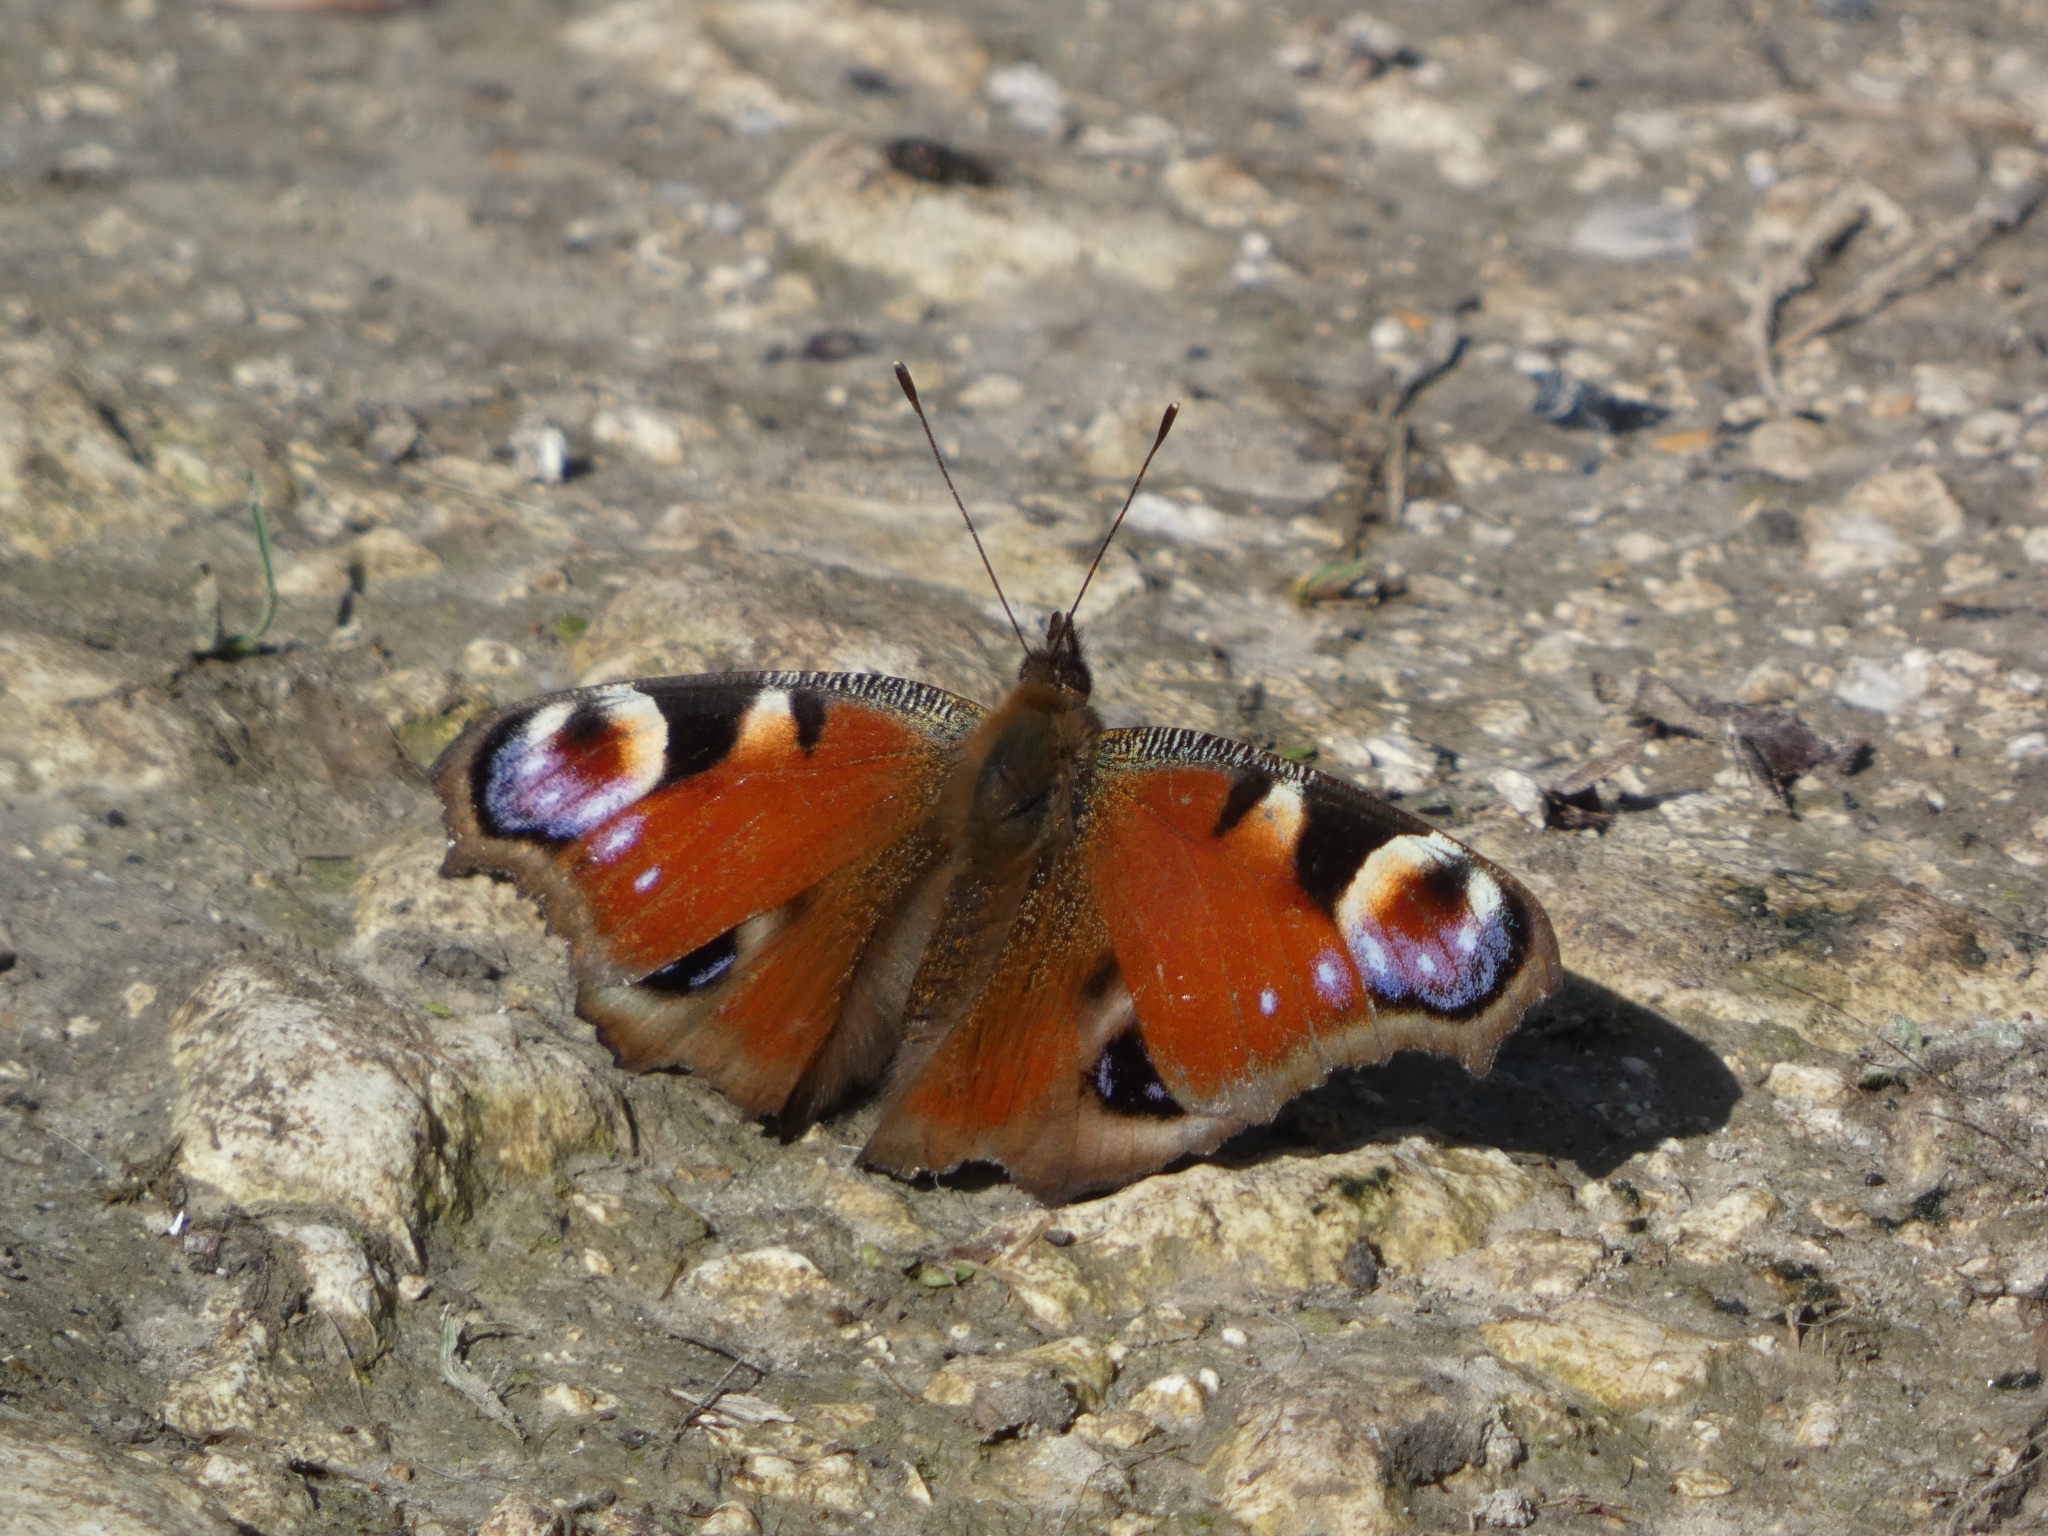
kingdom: Animalia
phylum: Arthropoda
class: Insecta
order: Lepidoptera
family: Nymphalidae
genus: Aglais
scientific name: Aglais io
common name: Peacock
